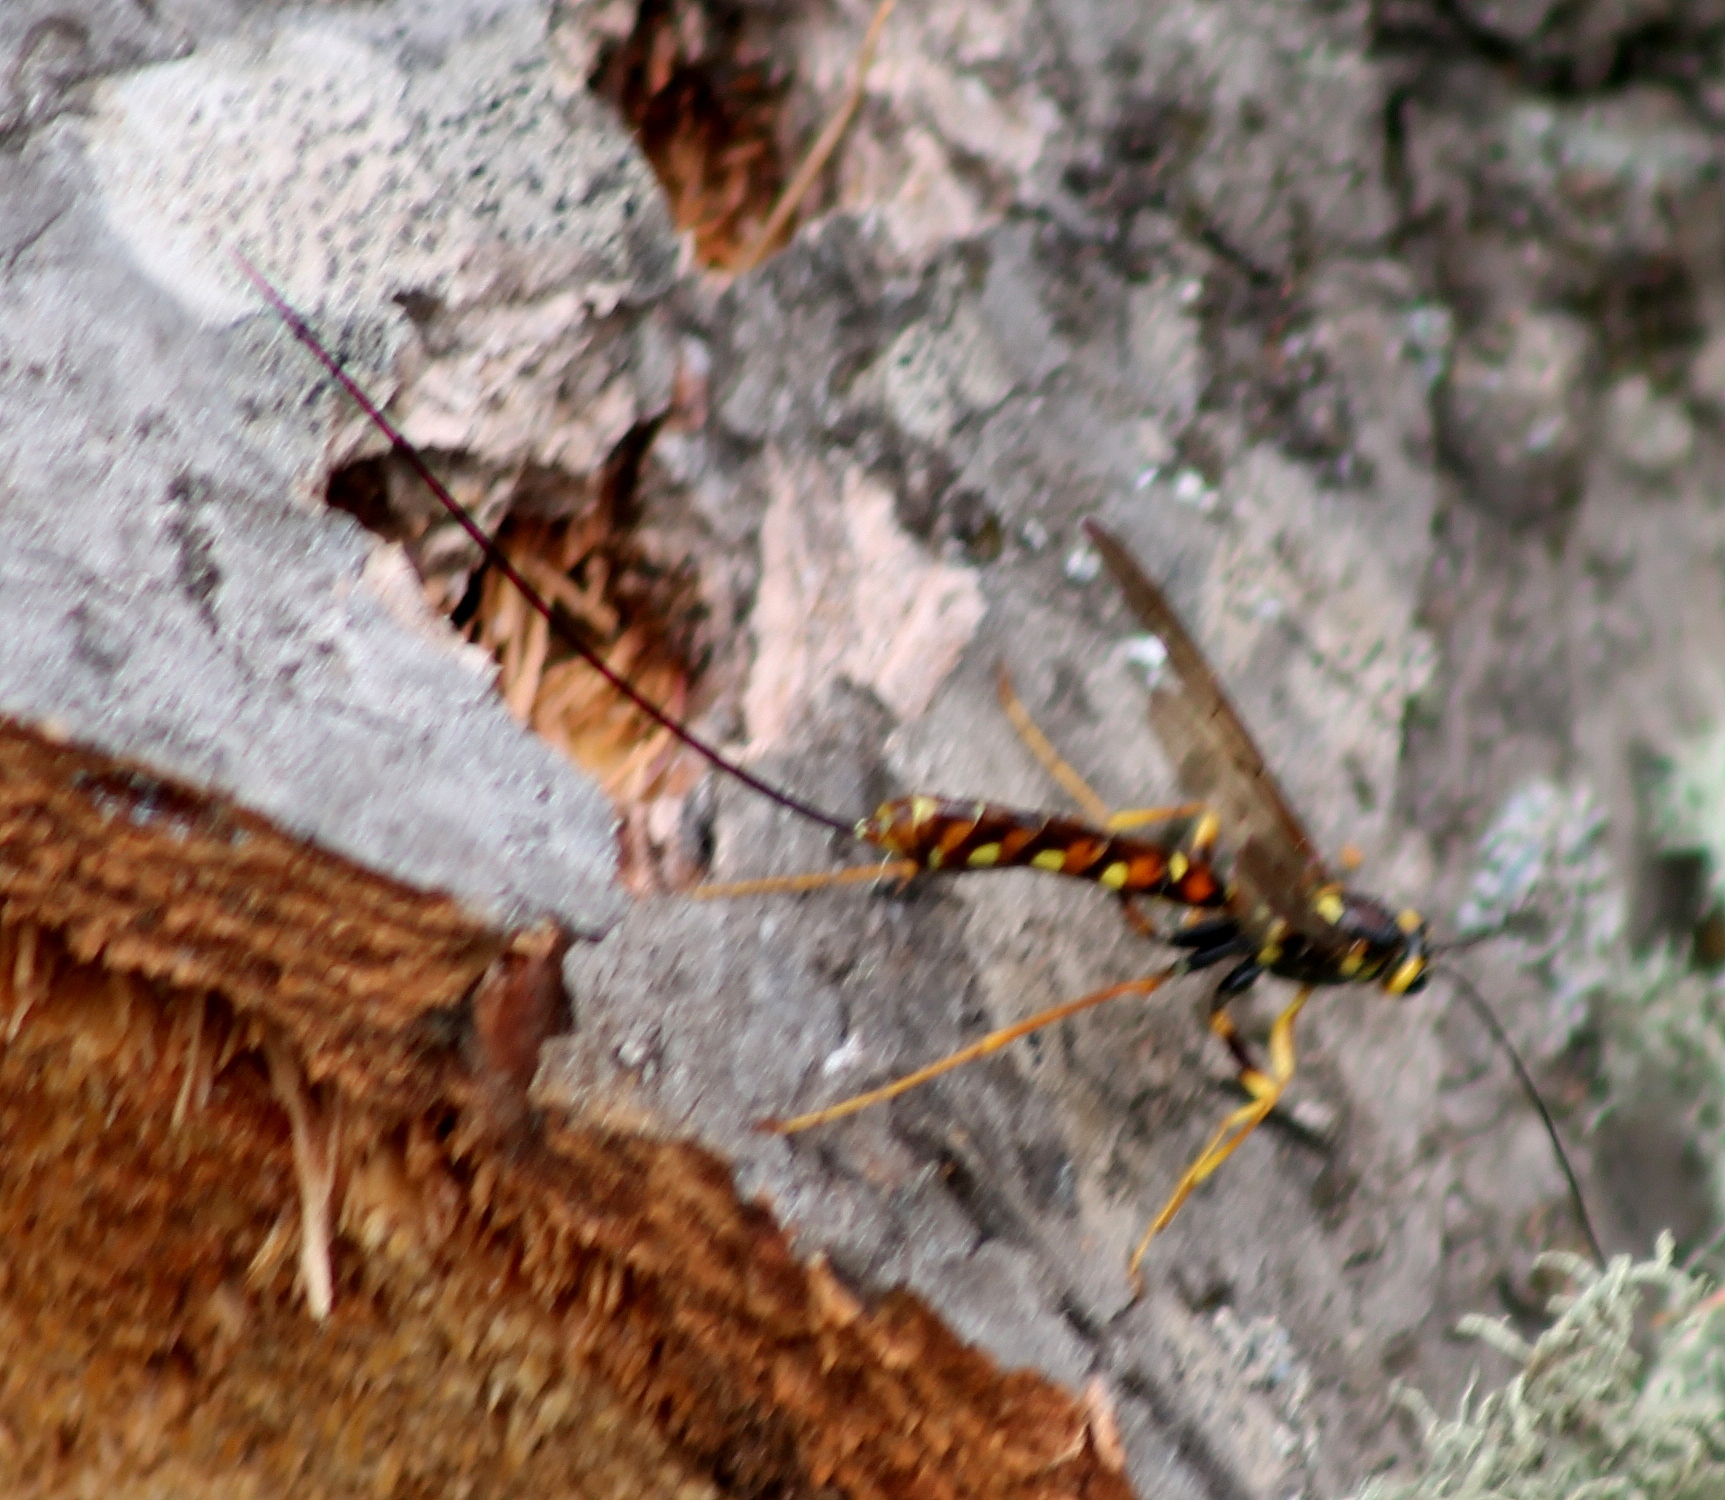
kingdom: Animalia
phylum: Arthropoda
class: Insecta
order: Hymenoptera
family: Ichneumonidae
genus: Megarhyssa
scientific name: Megarhyssa nortoni
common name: Norton's giant ichneumonid wasp
